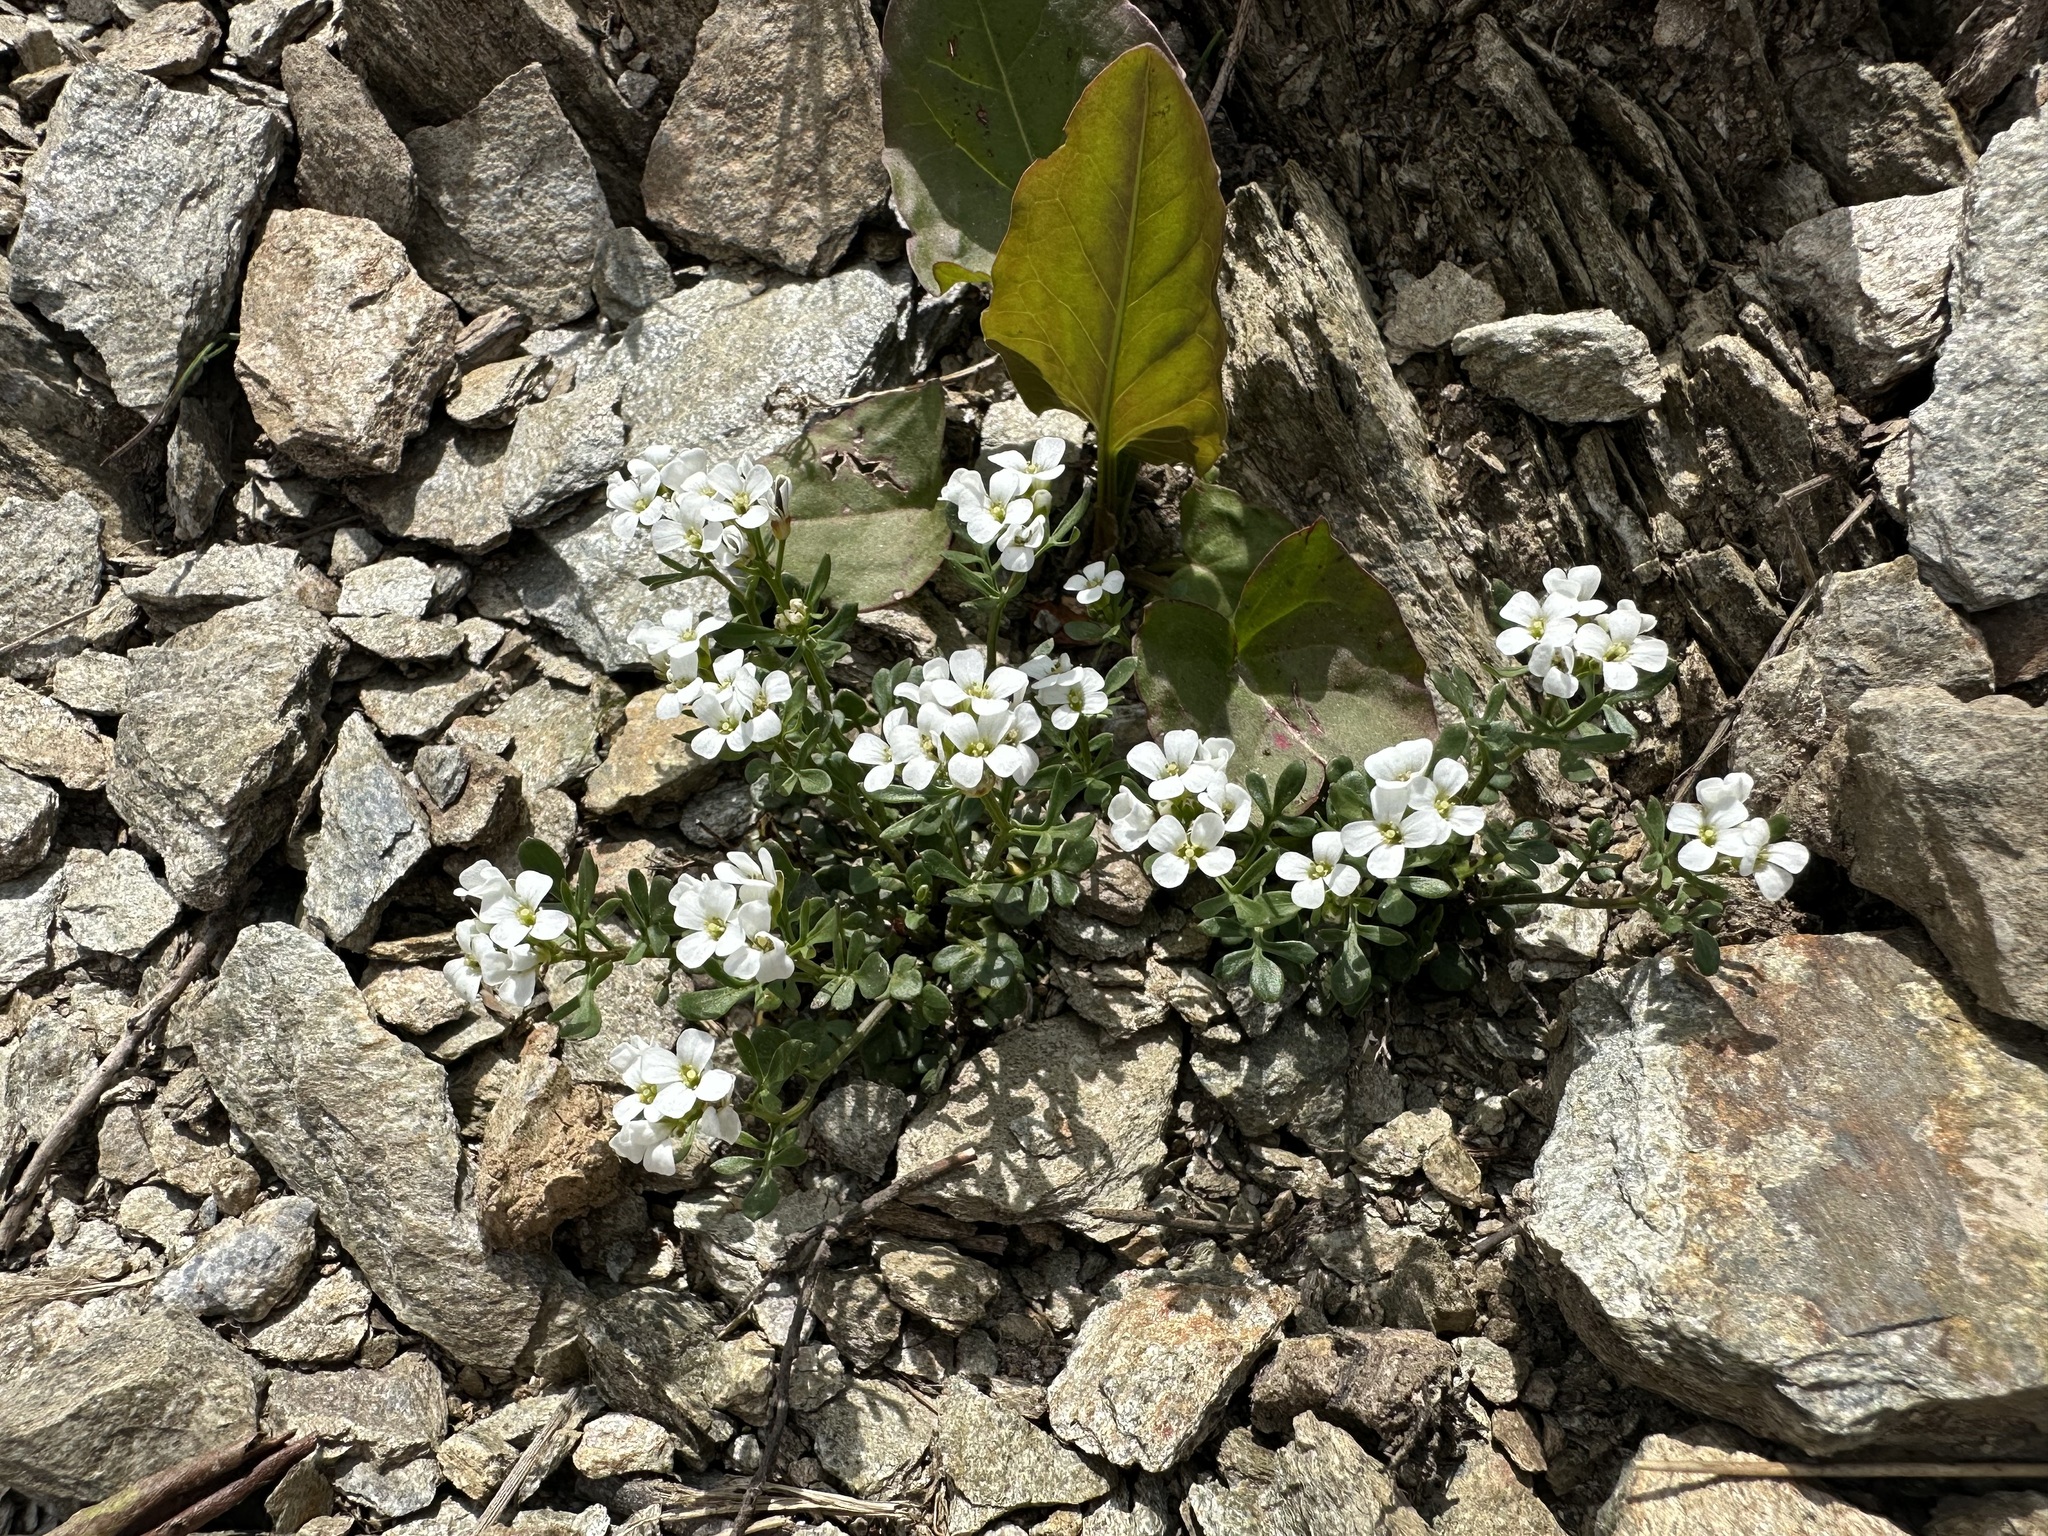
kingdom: Plantae
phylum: Tracheophyta
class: Magnoliopsida
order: Brassicales
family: Brassicaceae
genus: Cardamine
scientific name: Cardamine resedifolia
